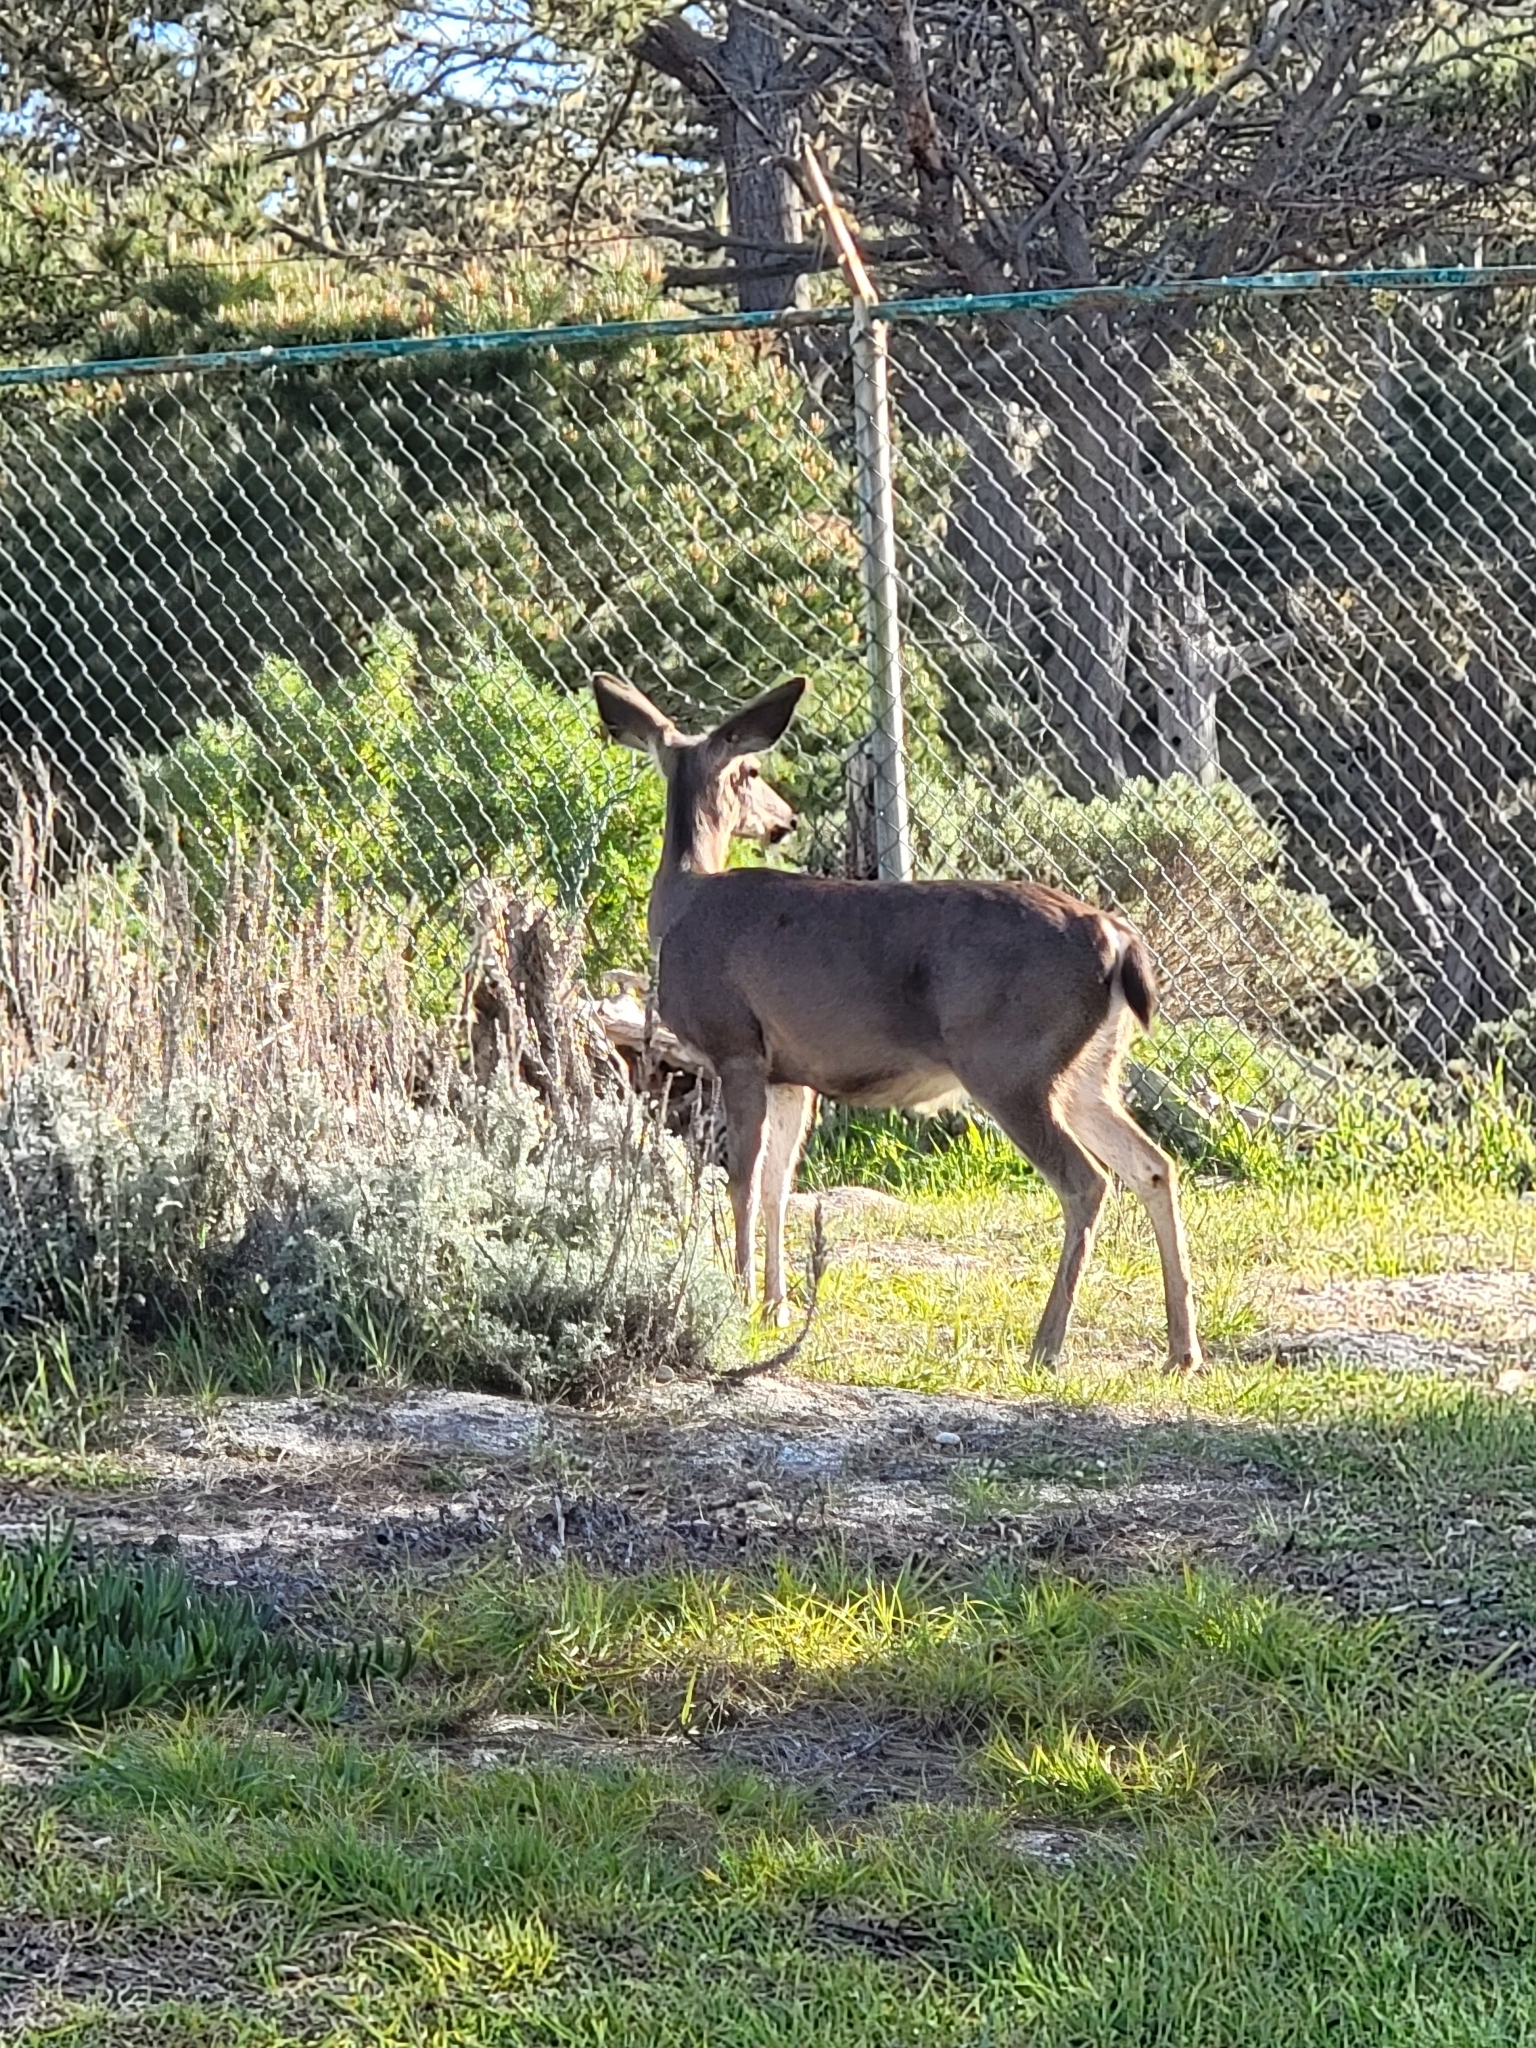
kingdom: Animalia
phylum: Chordata
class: Mammalia
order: Artiodactyla
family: Cervidae
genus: Odocoileus
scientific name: Odocoileus hemionus
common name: Mule deer
